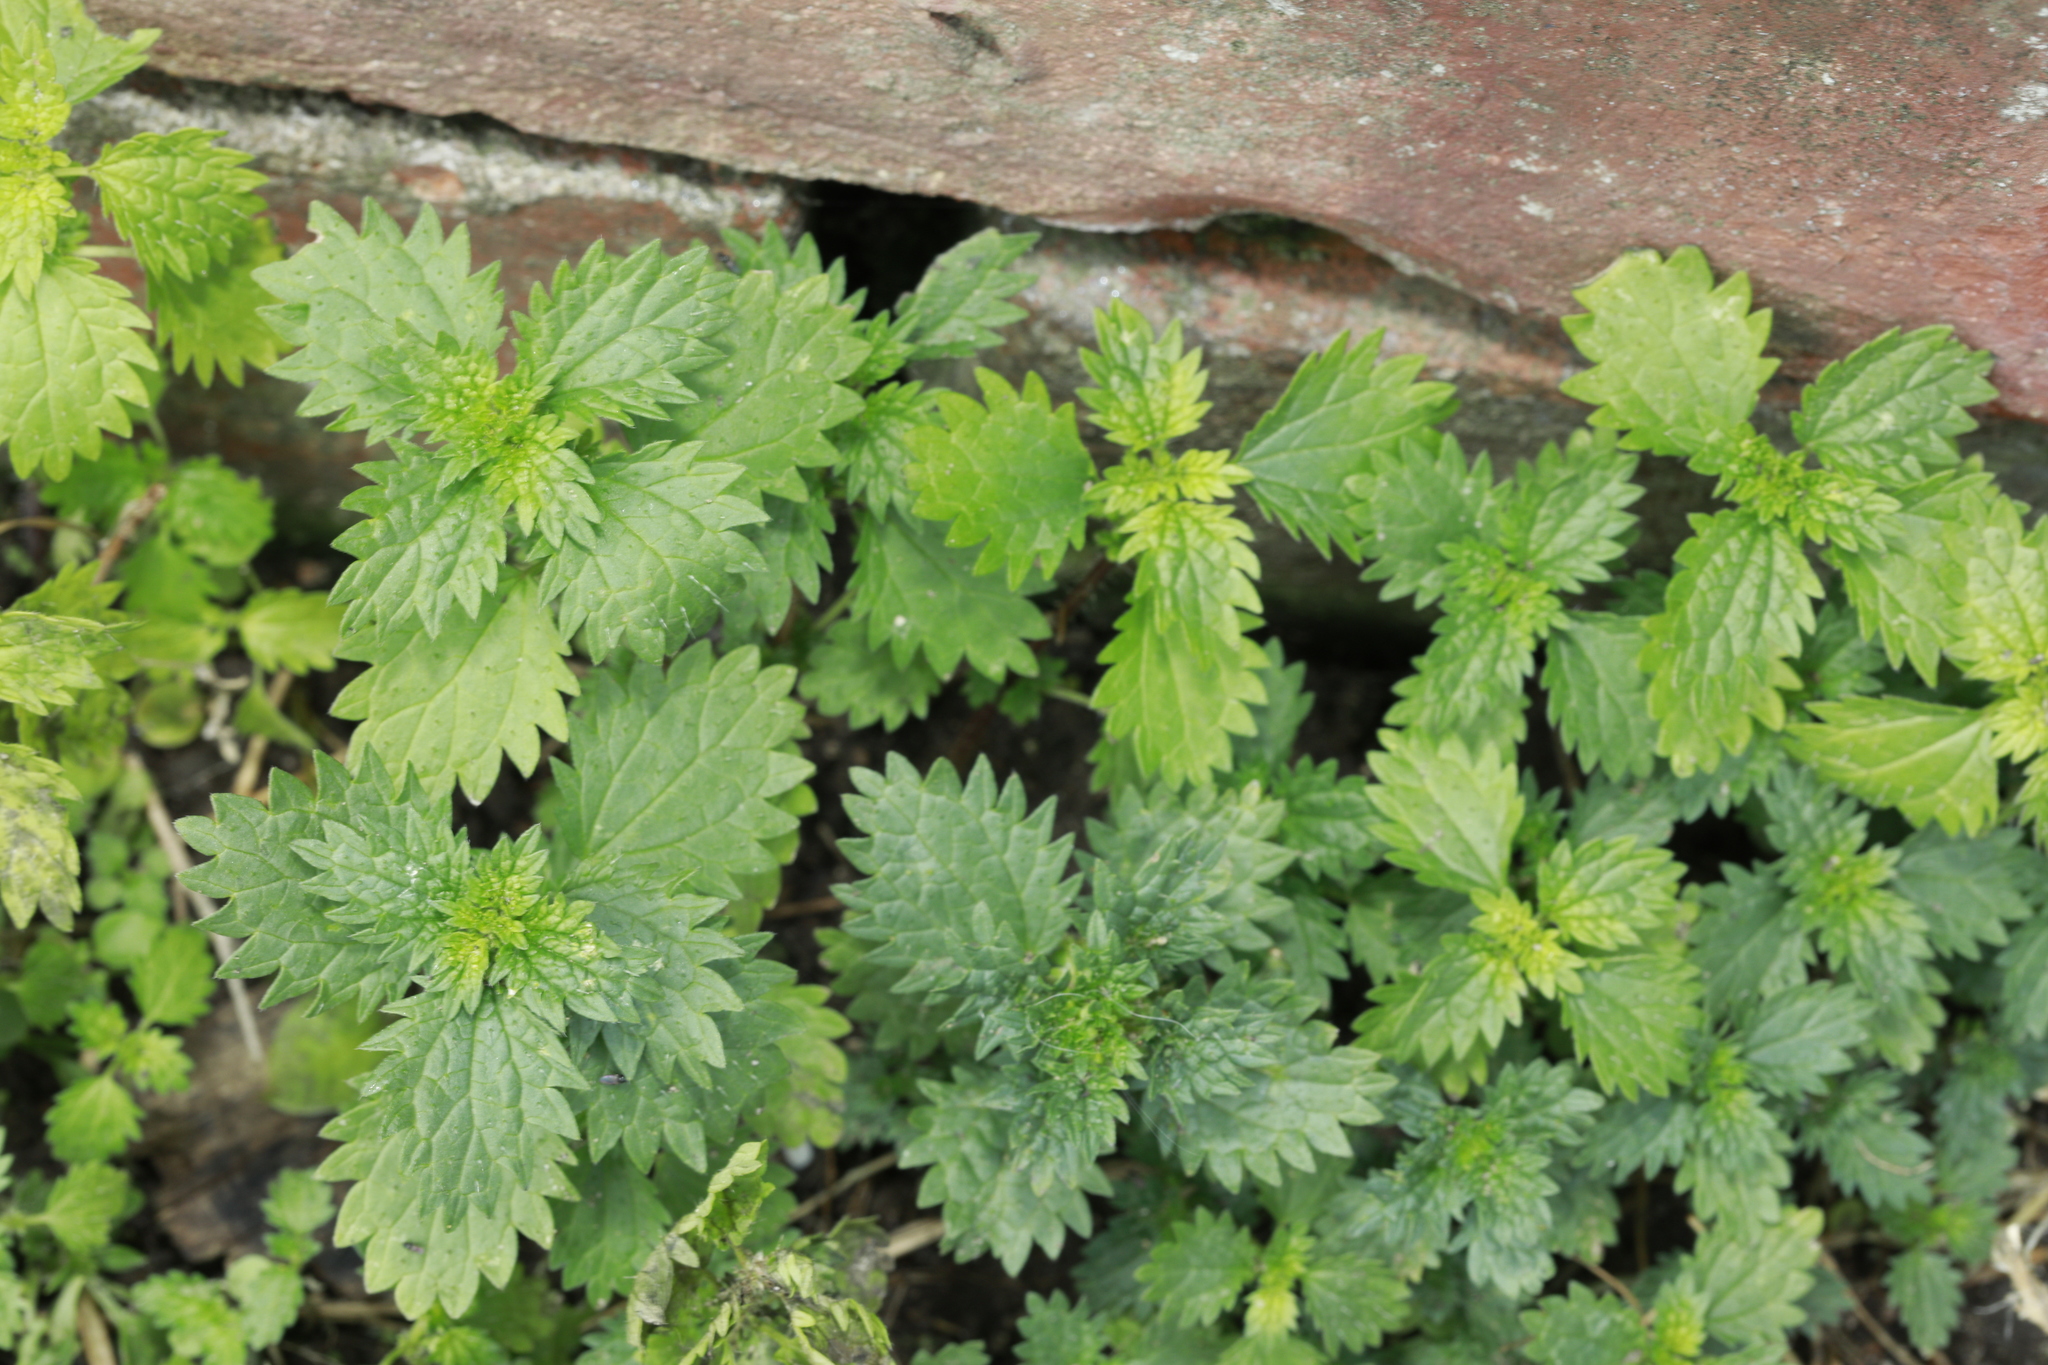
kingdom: Plantae
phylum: Tracheophyta
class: Magnoliopsida
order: Rosales
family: Urticaceae
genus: Urtica
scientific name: Urtica dioica
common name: Common nettle
